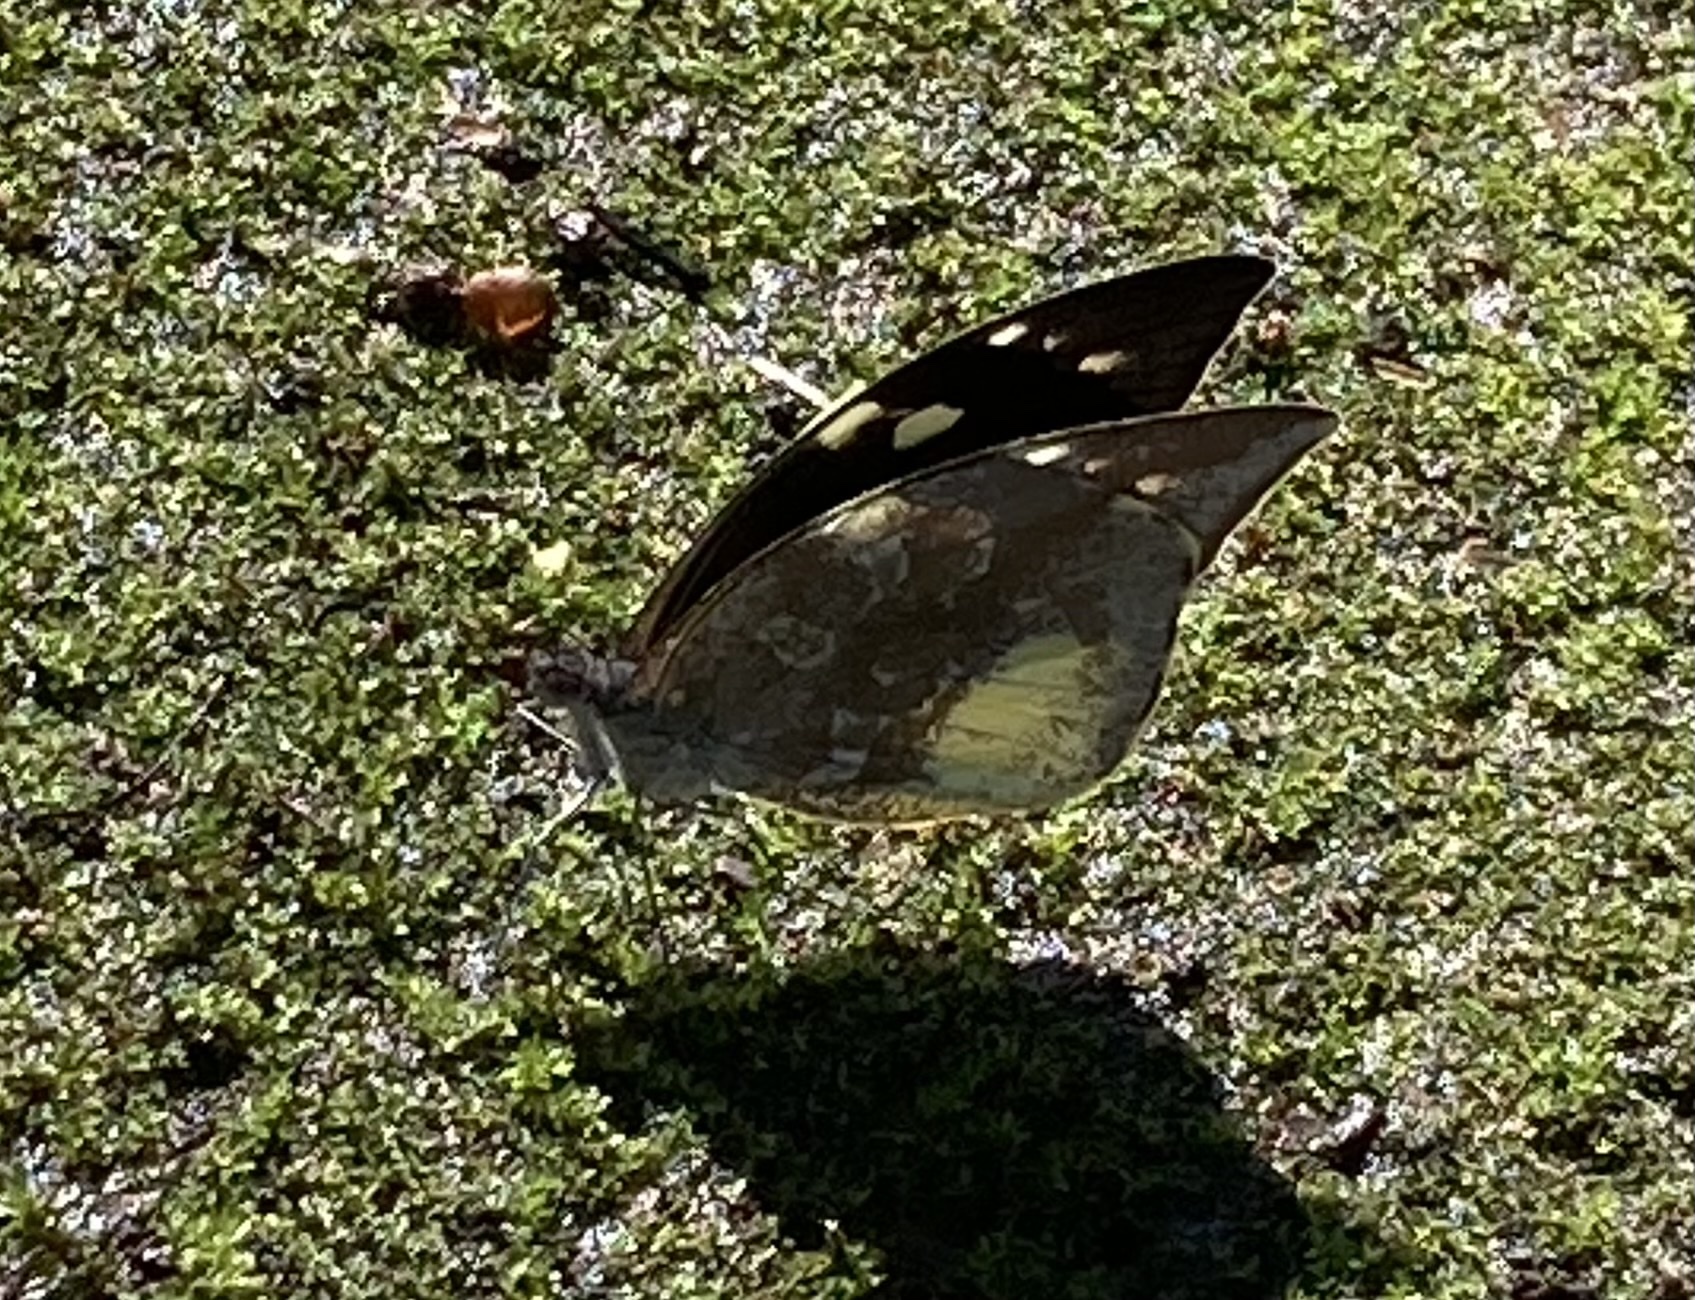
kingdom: Animalia
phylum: Arthropoda
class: Insecta
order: Lepidoptera
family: Pieridae
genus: Lieinix
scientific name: Lieinix nemesis
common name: Frosted mimic-white
